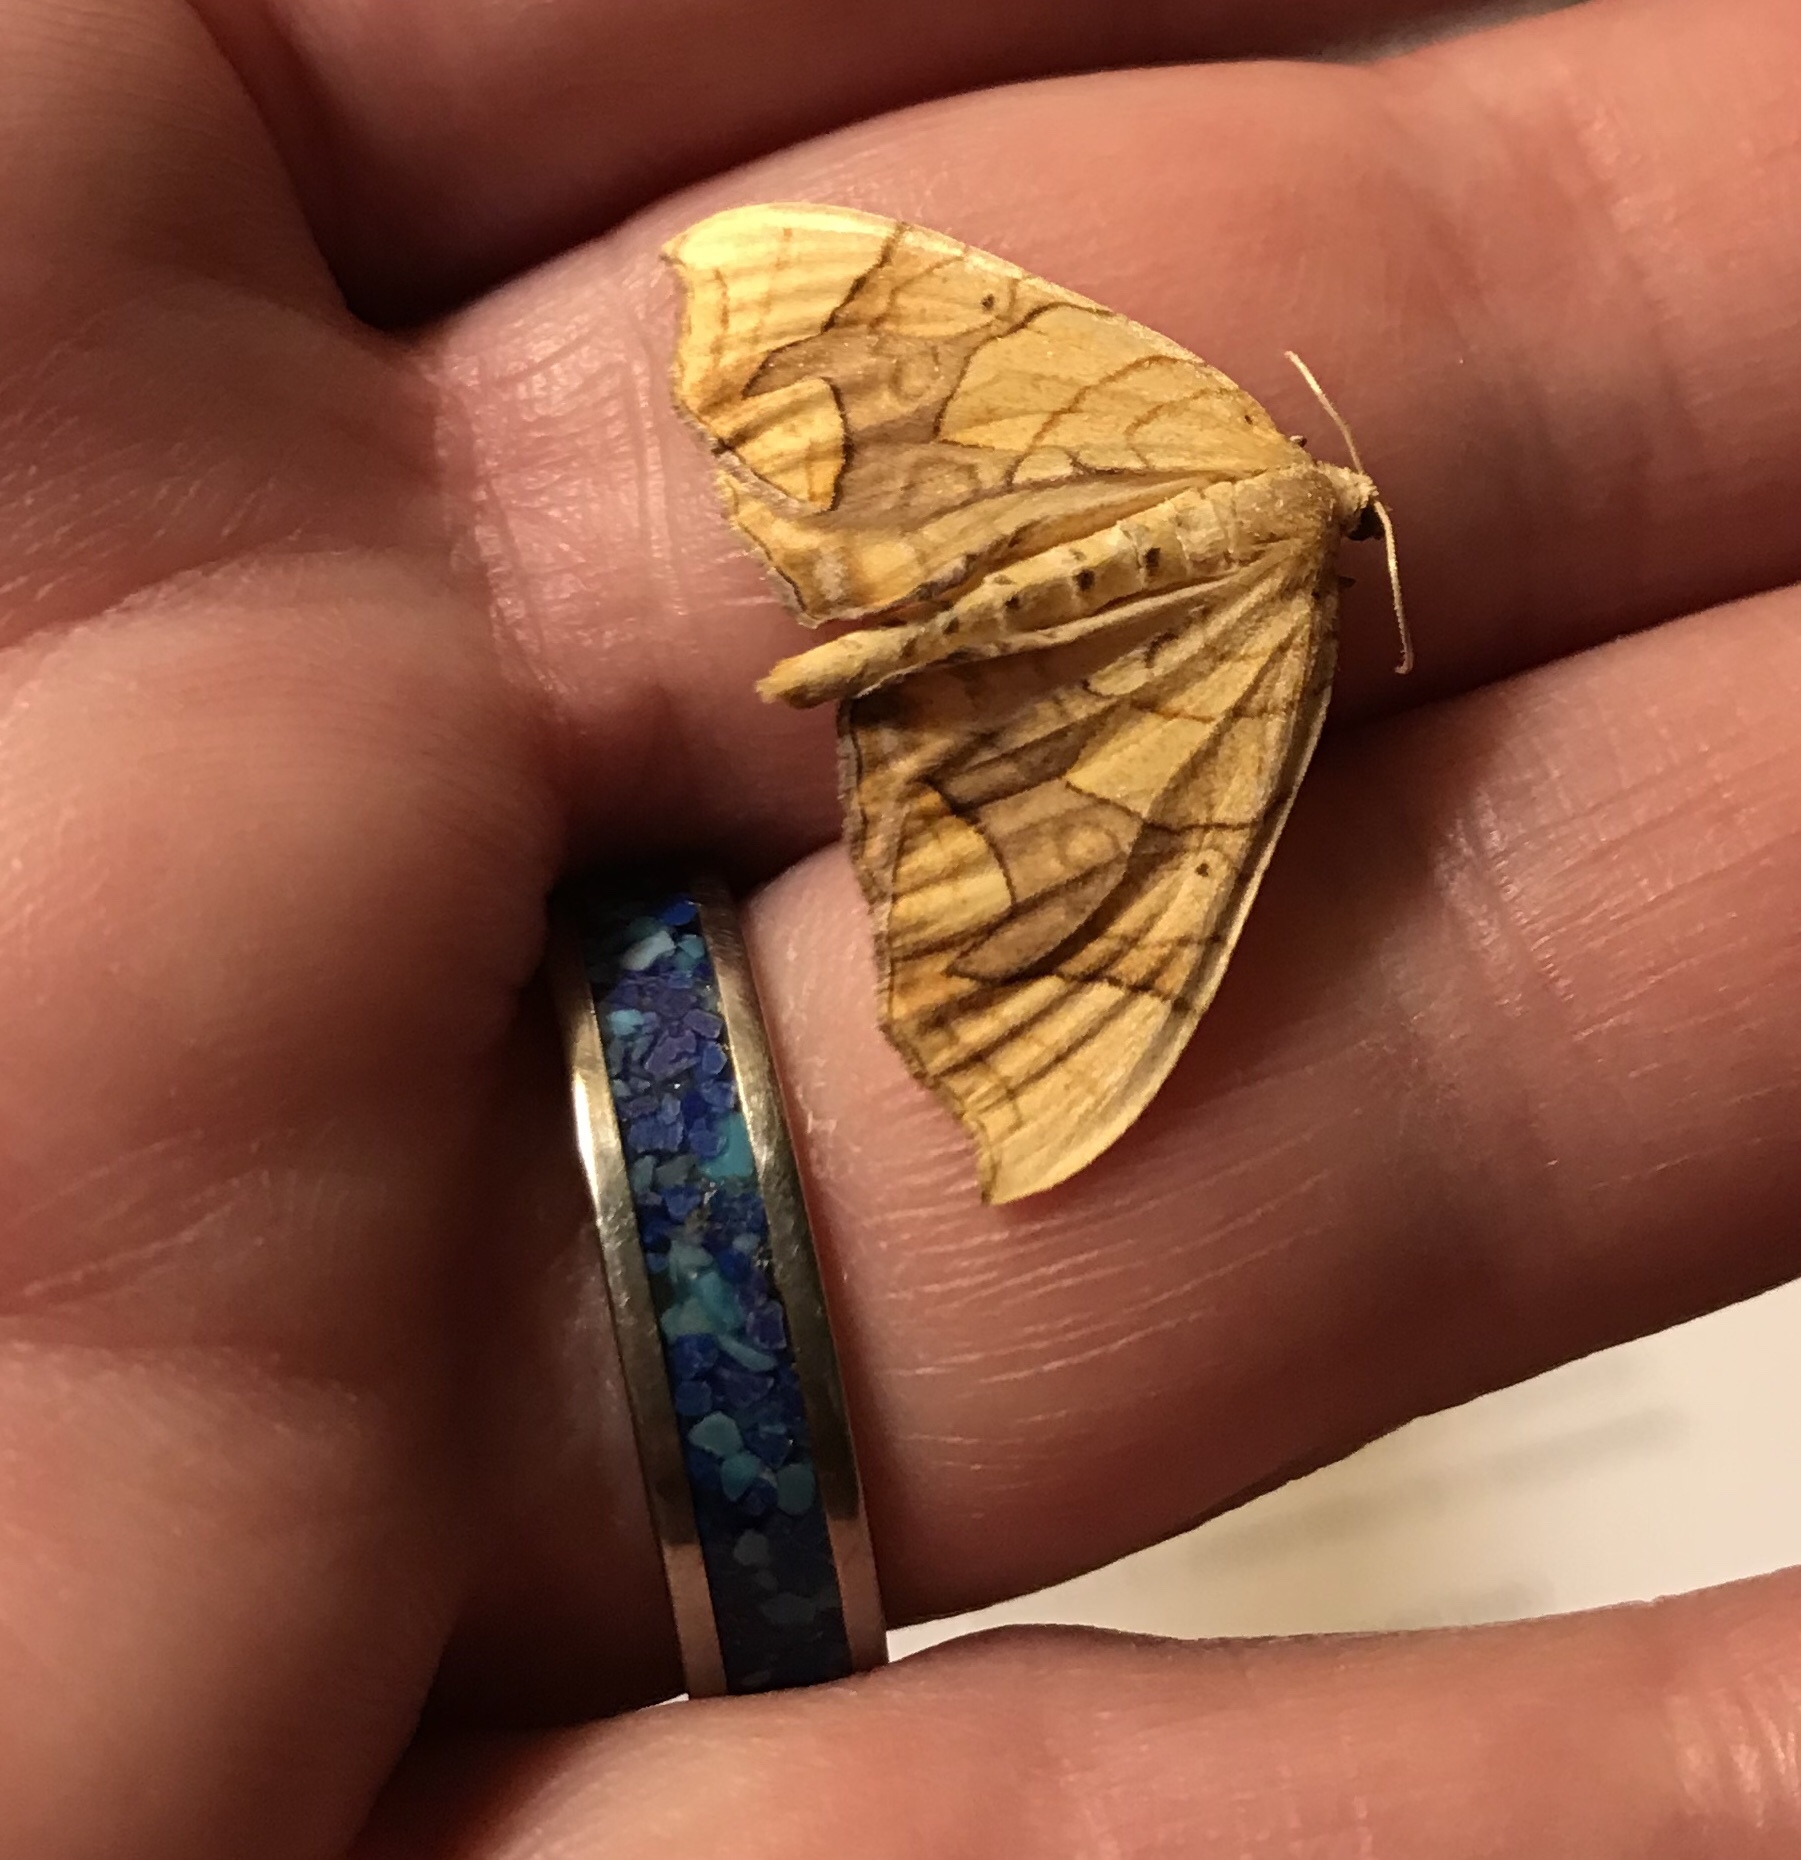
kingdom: Animalia
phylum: Arthropoda
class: Insecta
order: Lepidoptera
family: Geometridae
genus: Eulithis
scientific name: Eulithis diversilineata
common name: Grapevine looper
